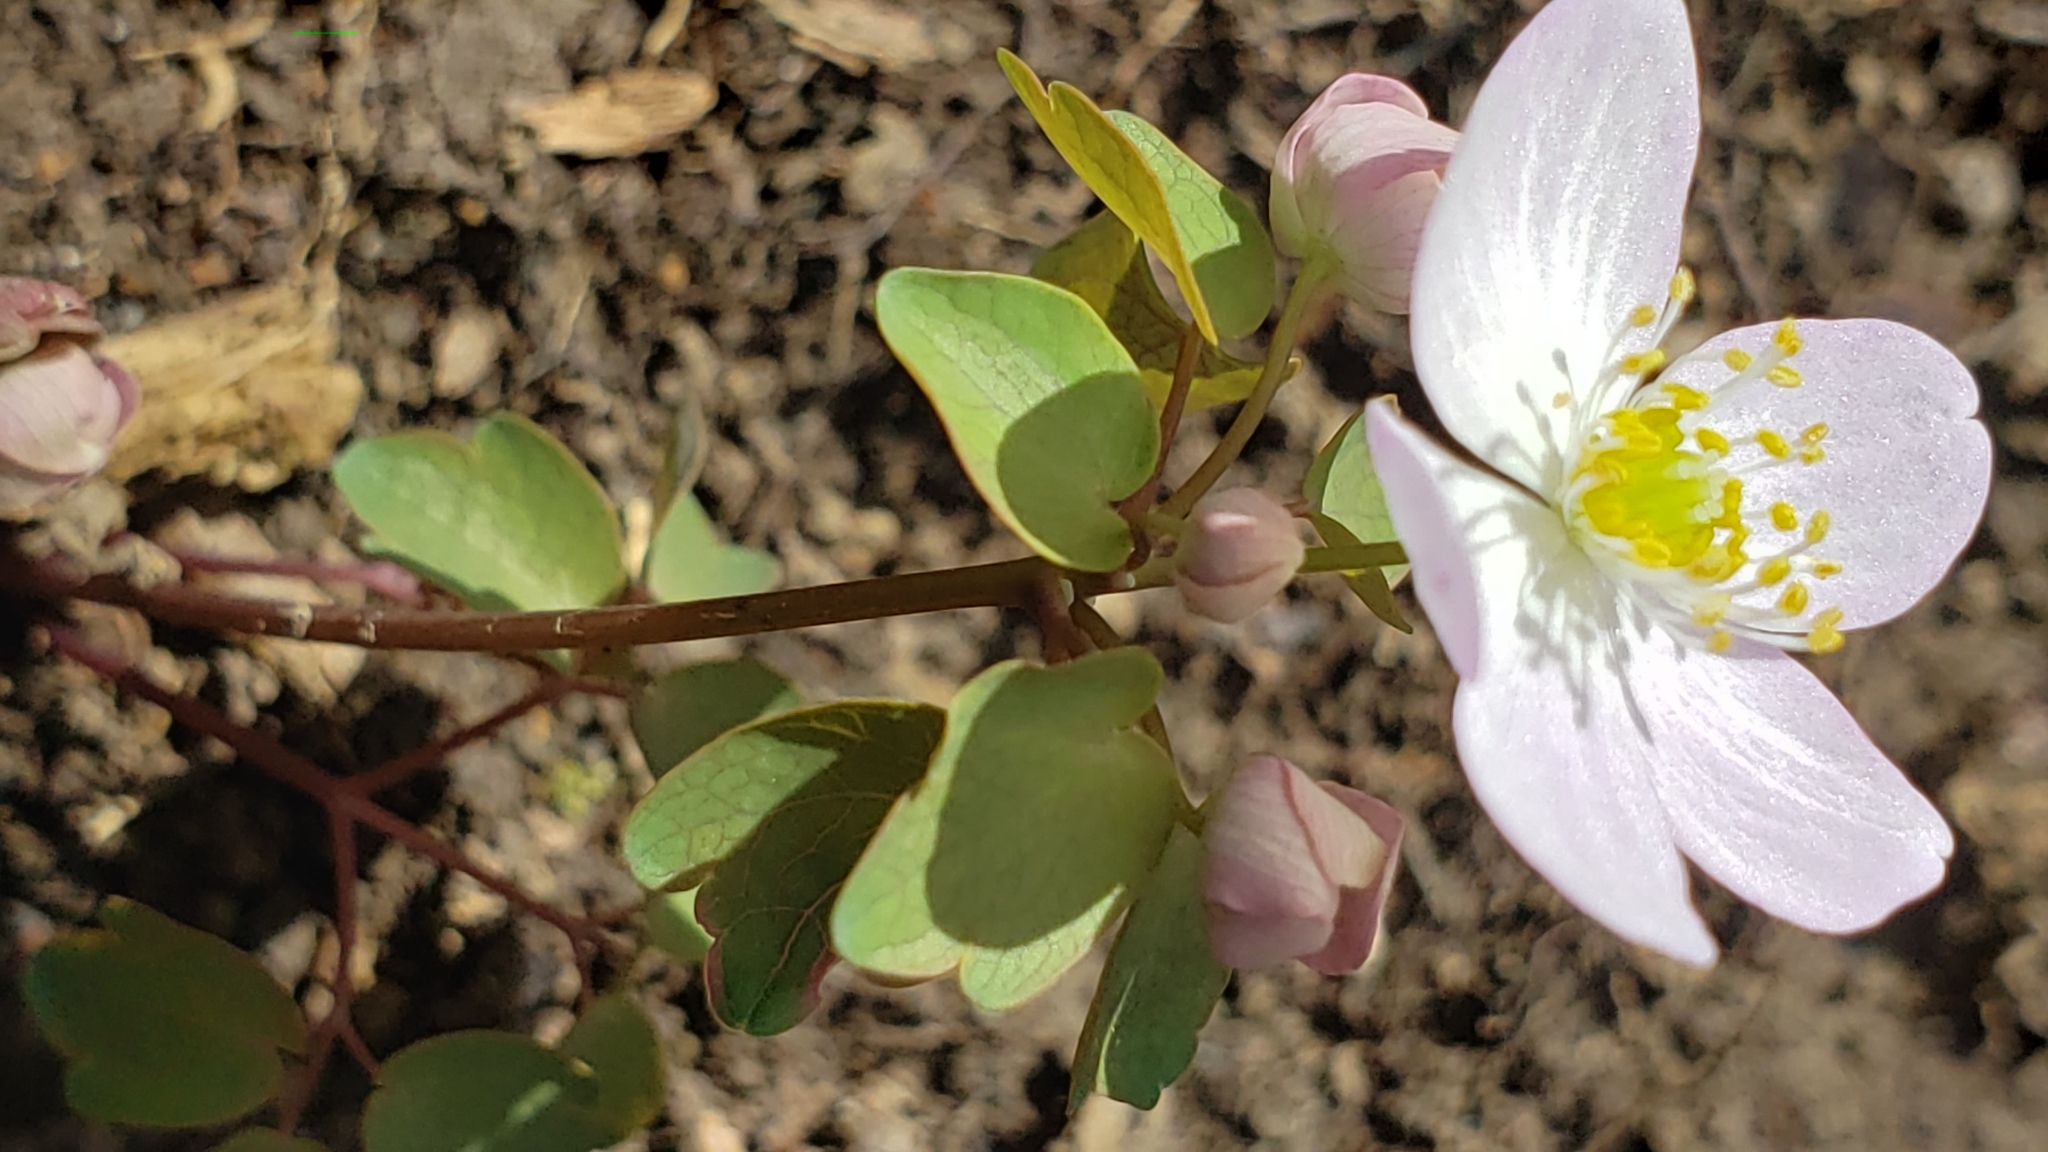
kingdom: Plantae
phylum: Tracheophyta
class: Magnoliopsida
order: Ranunculales
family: Ranunculaceae
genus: Thalictrum
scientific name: Thalictrum thalictroides
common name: Rue-anemone
